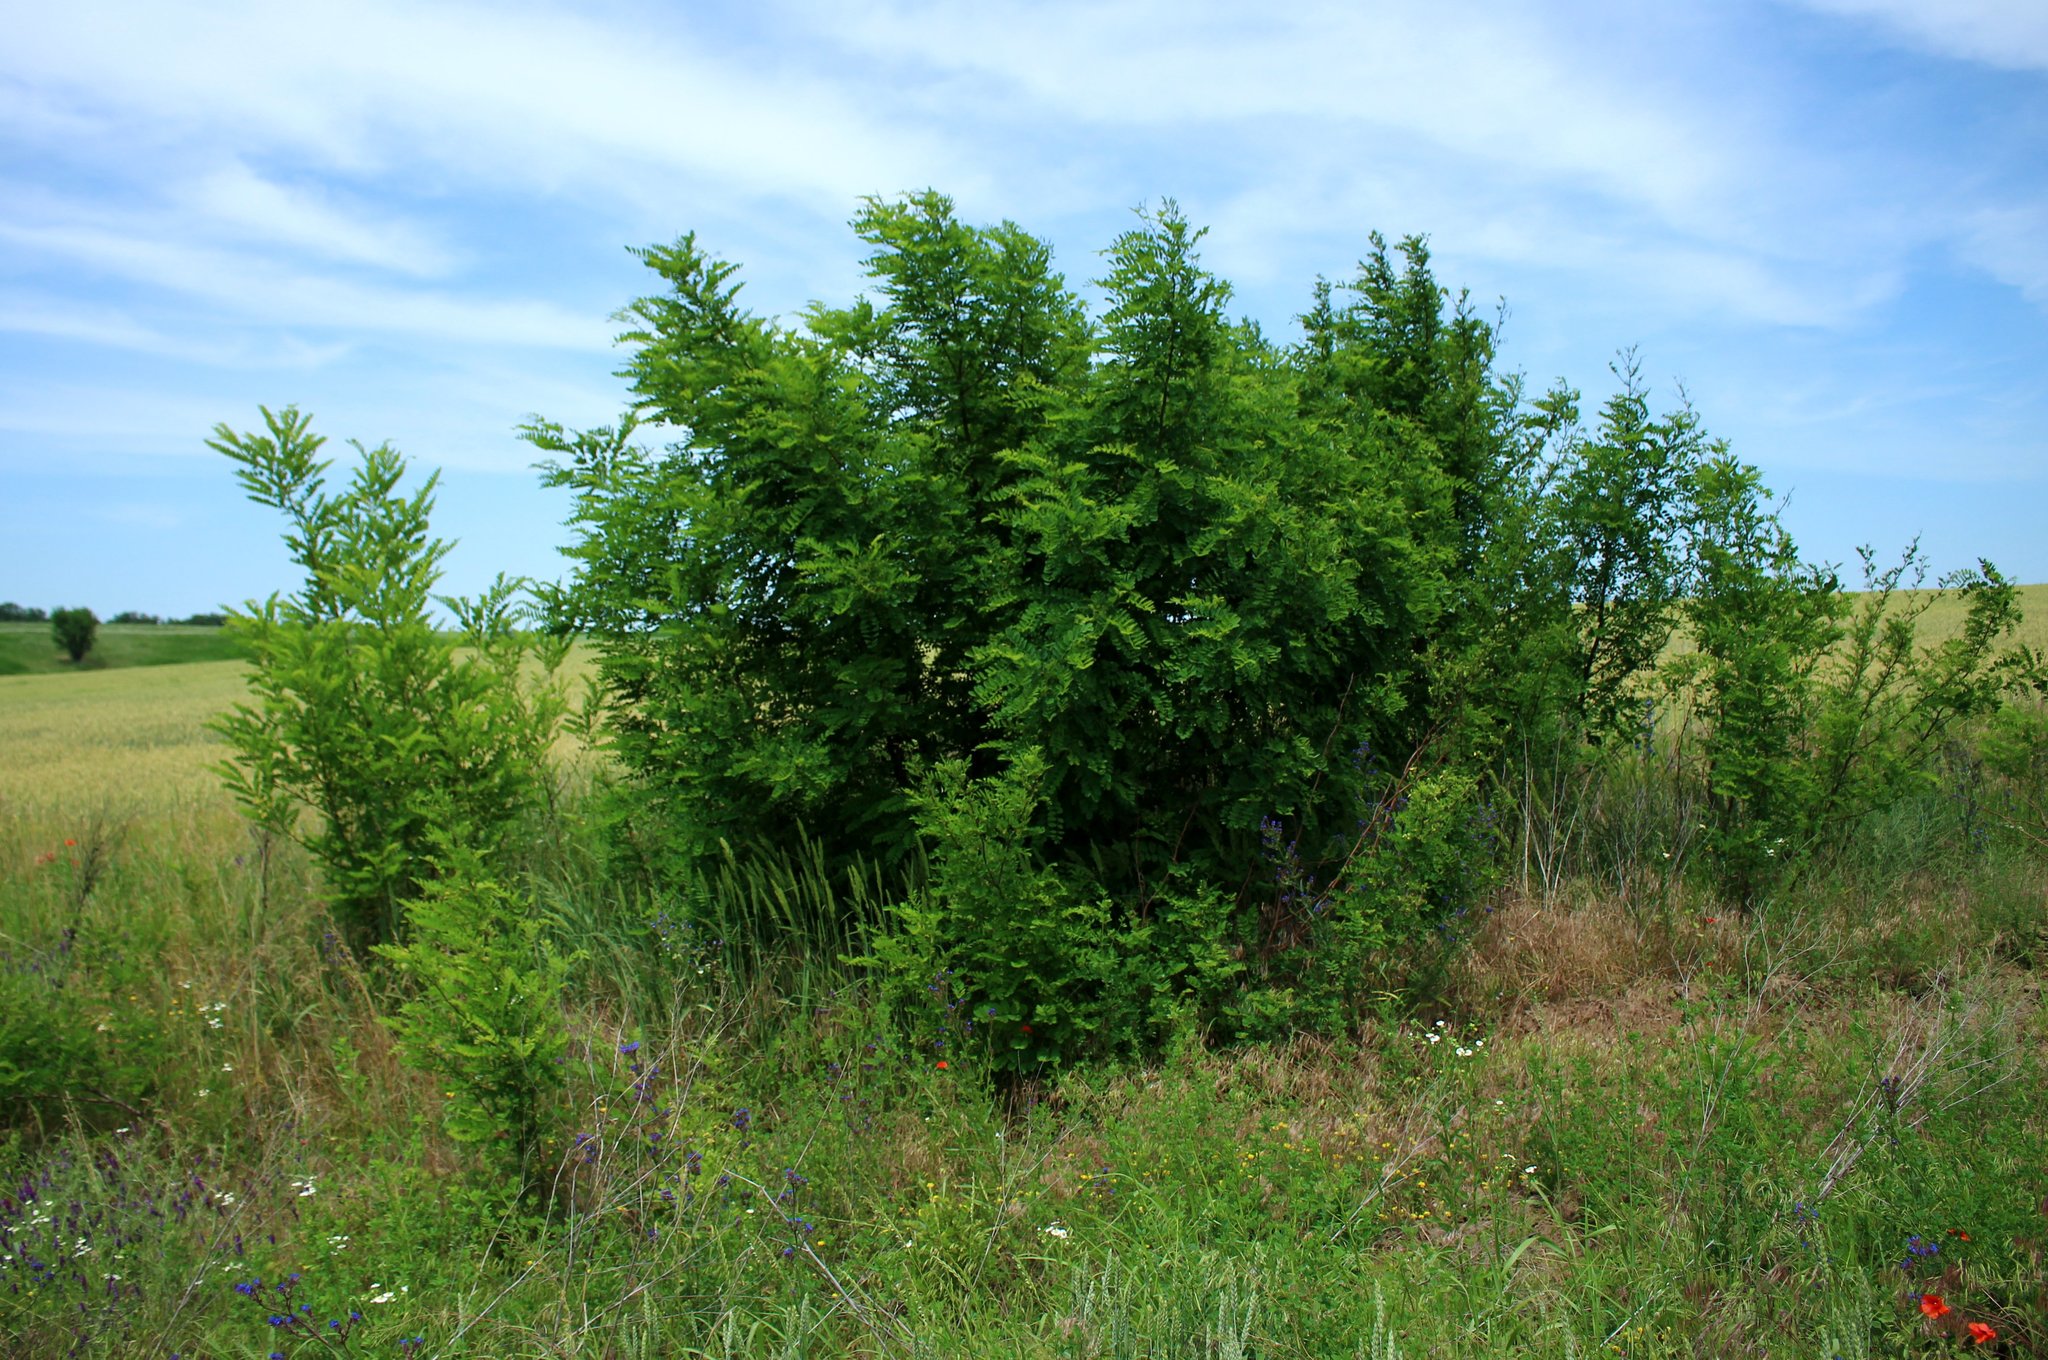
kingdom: Plantae
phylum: Tracheophyta
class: Magnoliopsida
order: Fabales
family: Fabaceae
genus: Robinia
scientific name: Robinia pseudoacacia
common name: Black locust
